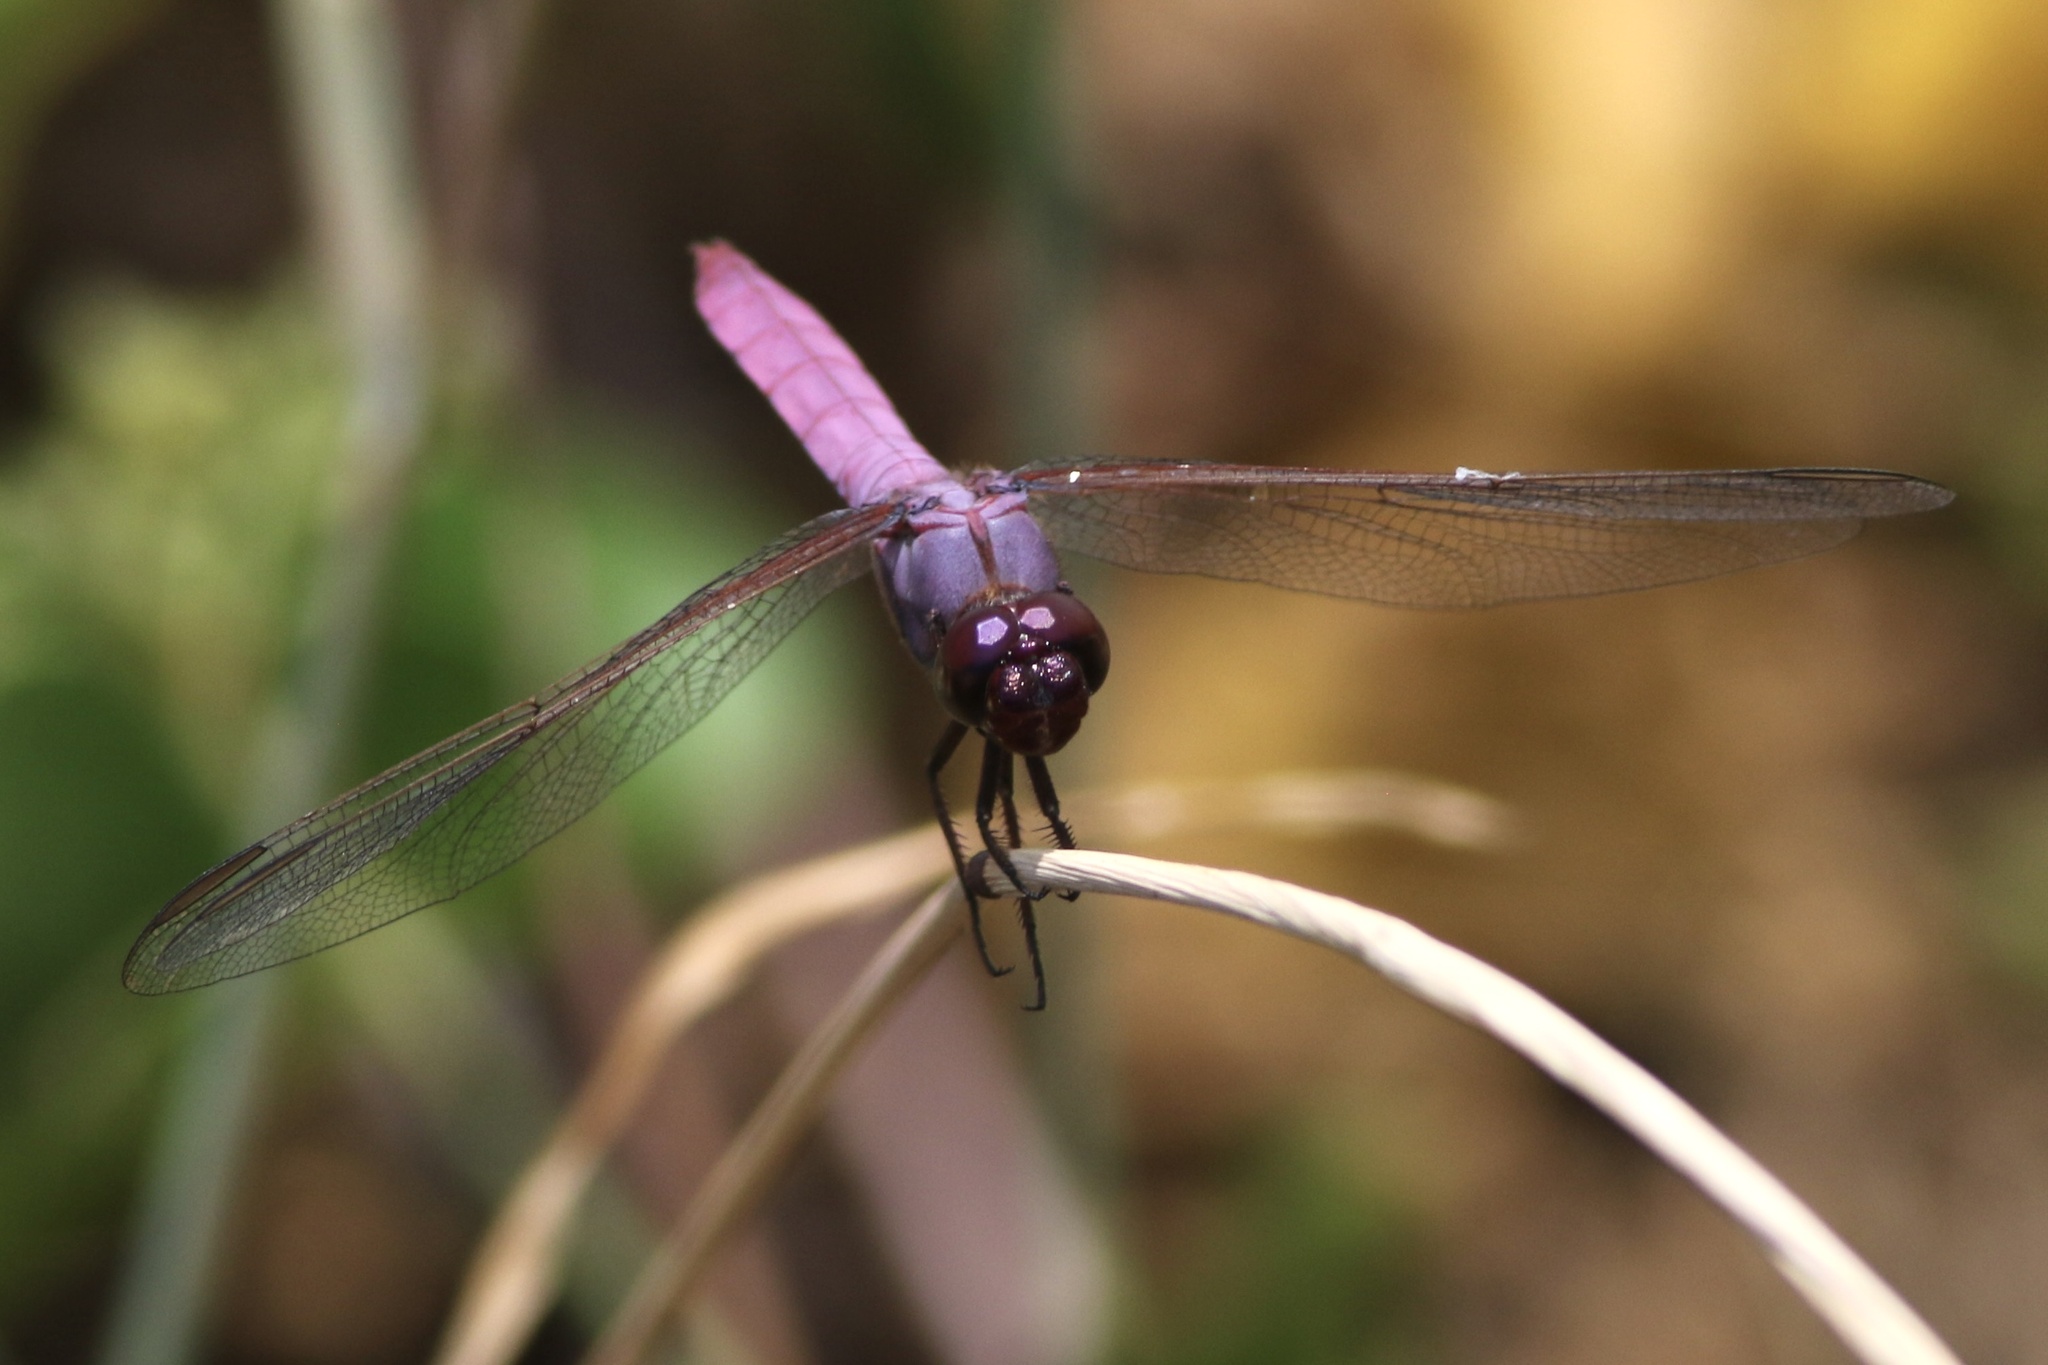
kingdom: Animalia
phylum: Arthropoda
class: Insecta
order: Odonata
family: Libellulidae
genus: Orthemis
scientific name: Orthemis ferruginea
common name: Roseate skimmer
